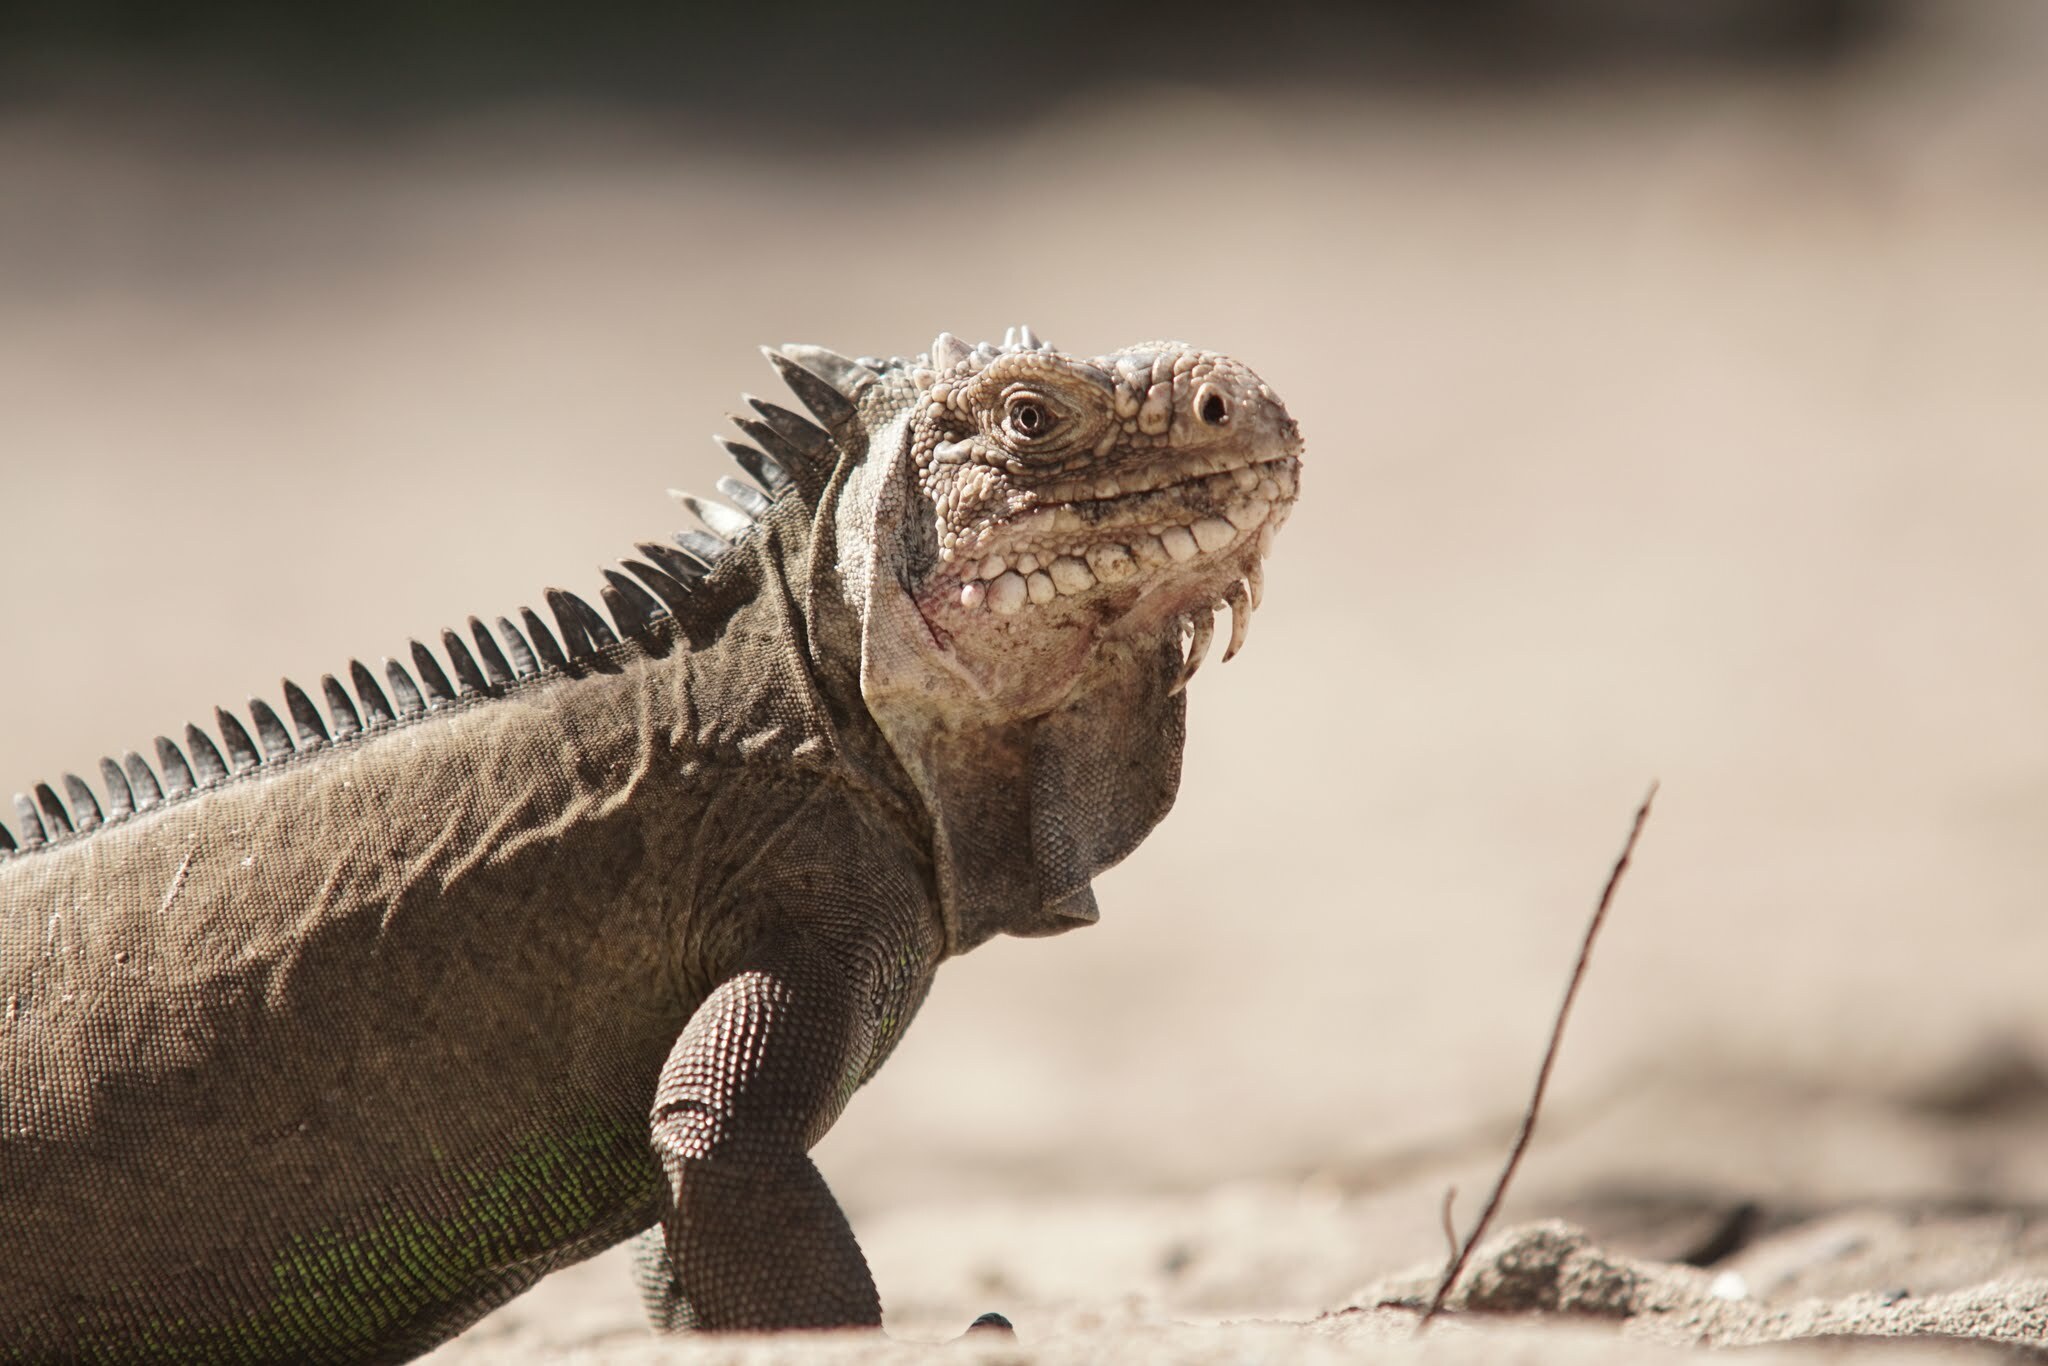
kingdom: Animalia
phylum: Chordata
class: Squamata
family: Iguanidae
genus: Iguana
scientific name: Iguana delicatissima
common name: West indian iguana
